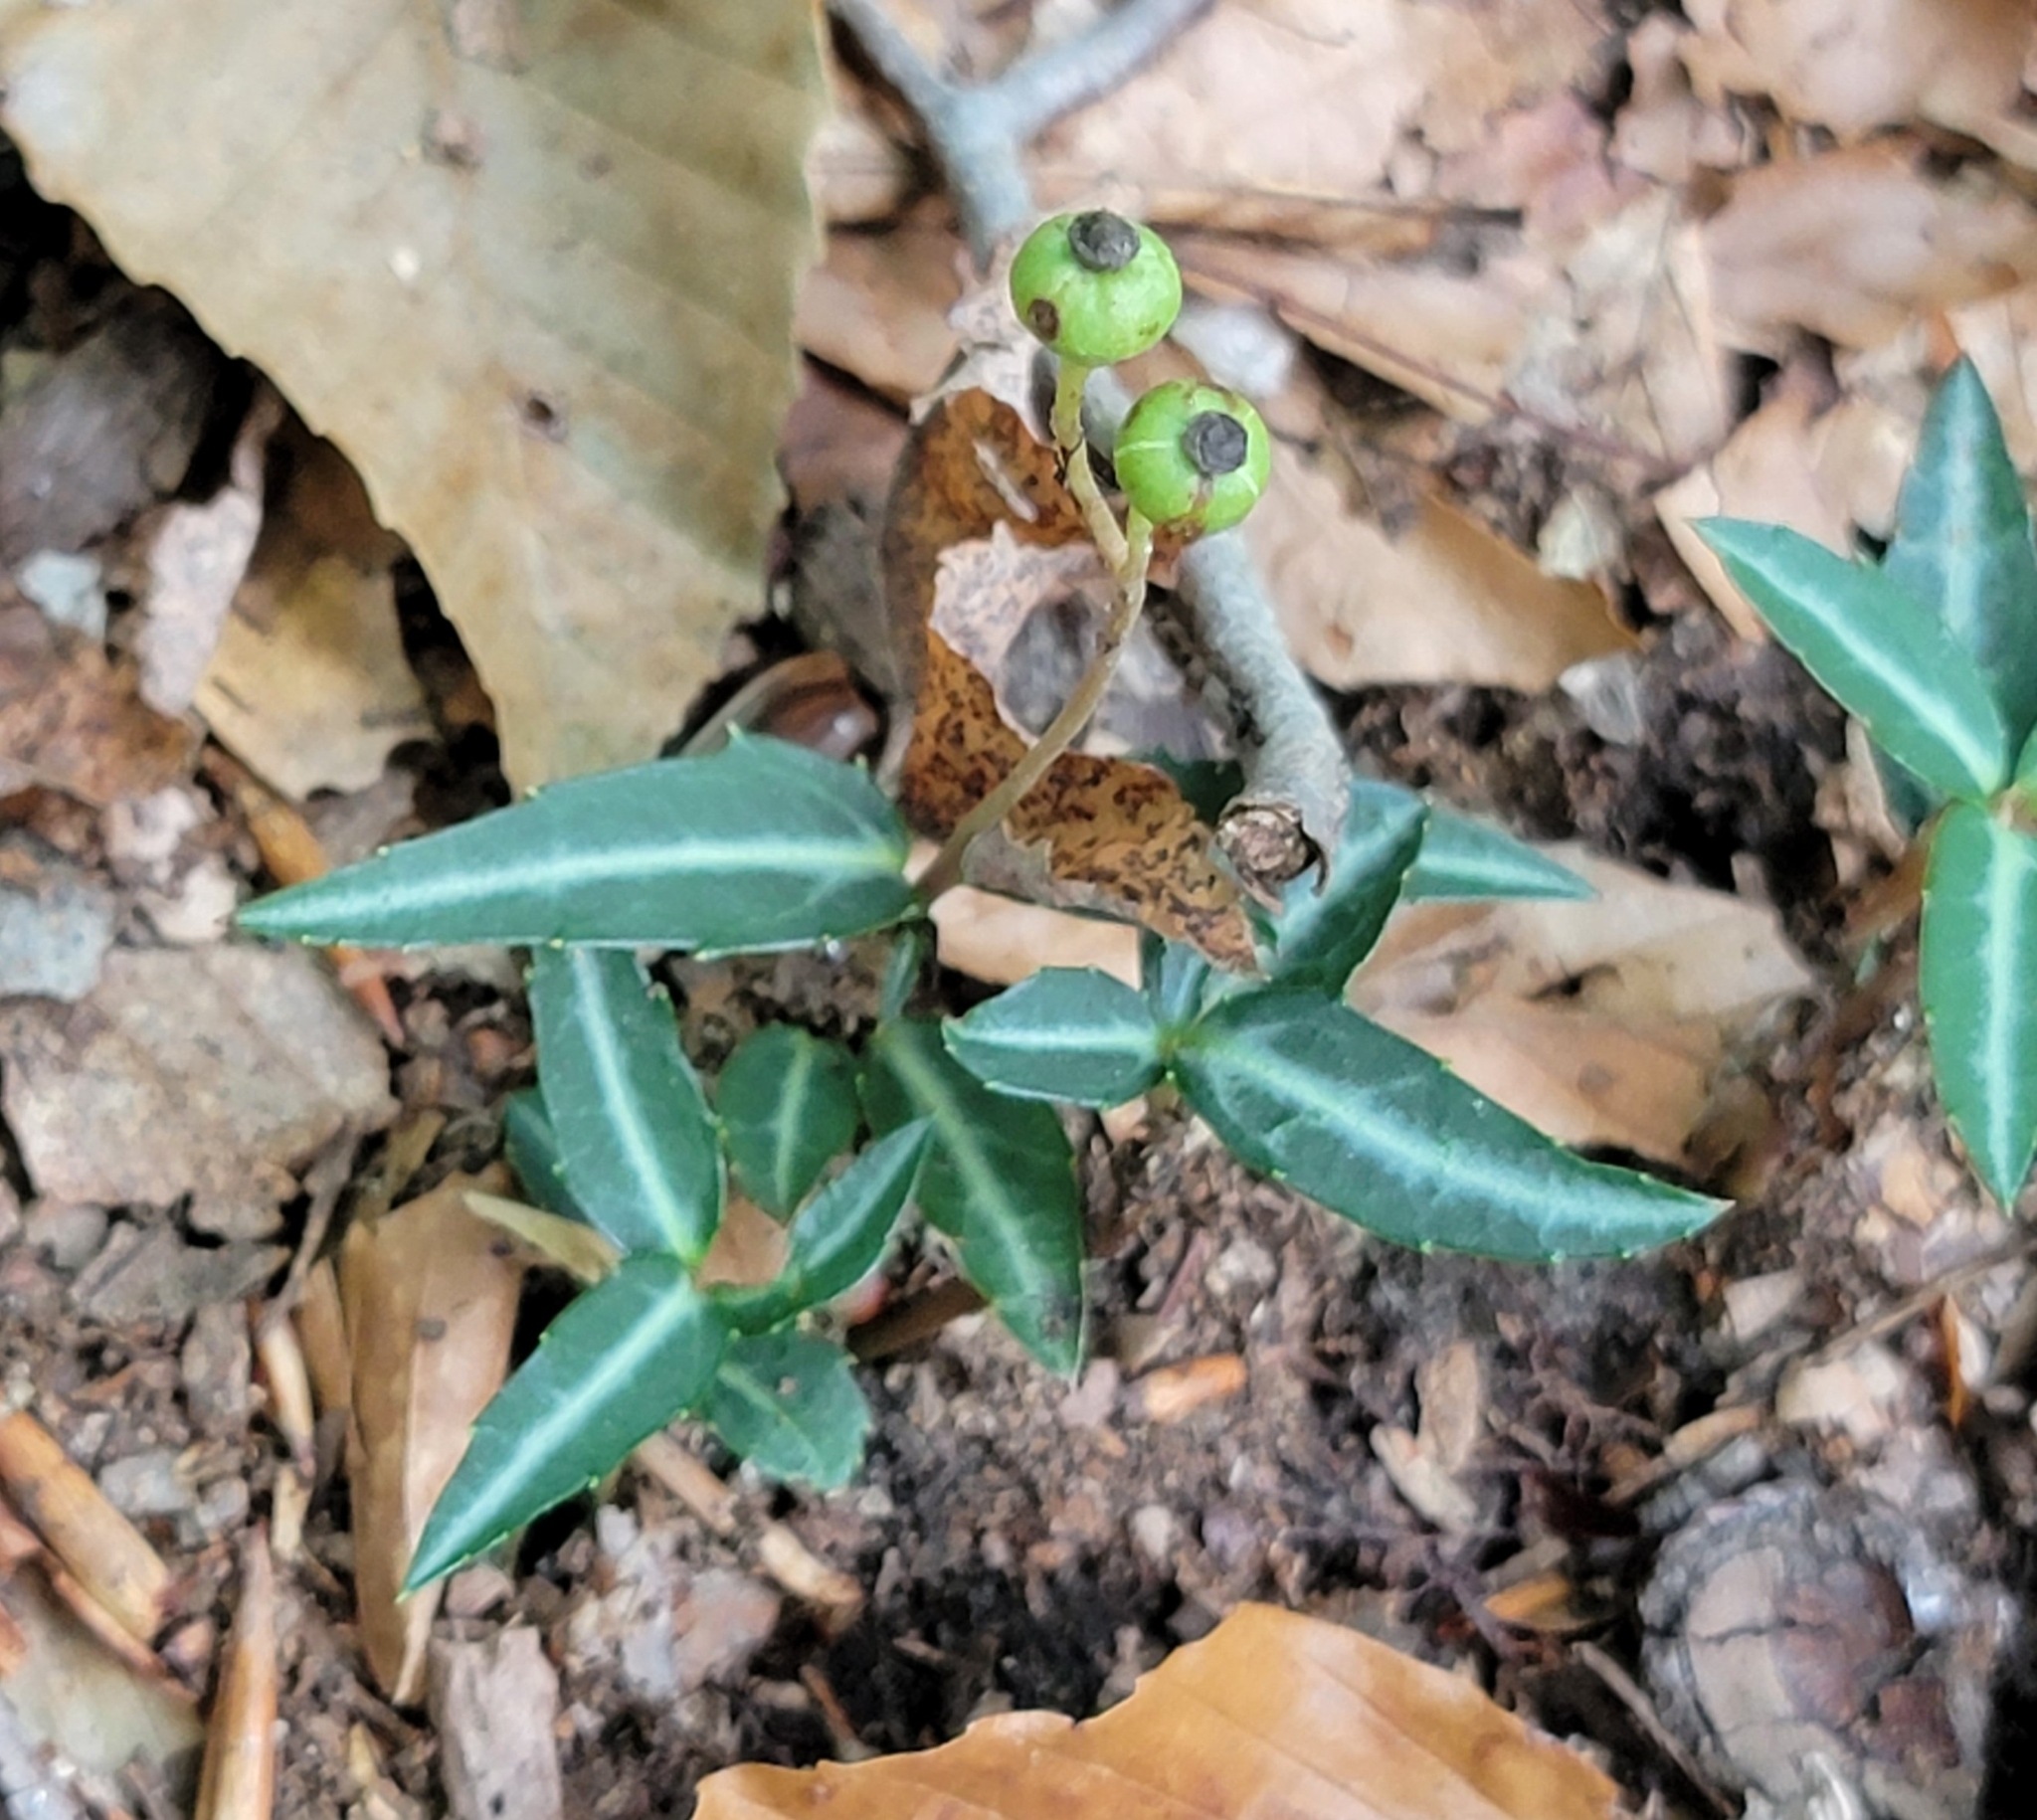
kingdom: Plantae
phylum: Tracheophyta
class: Magnoliopsida
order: Ericales
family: Ericaceae
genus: Chimaphila
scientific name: Chimaphila maculata
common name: Spotted pipsissewa
